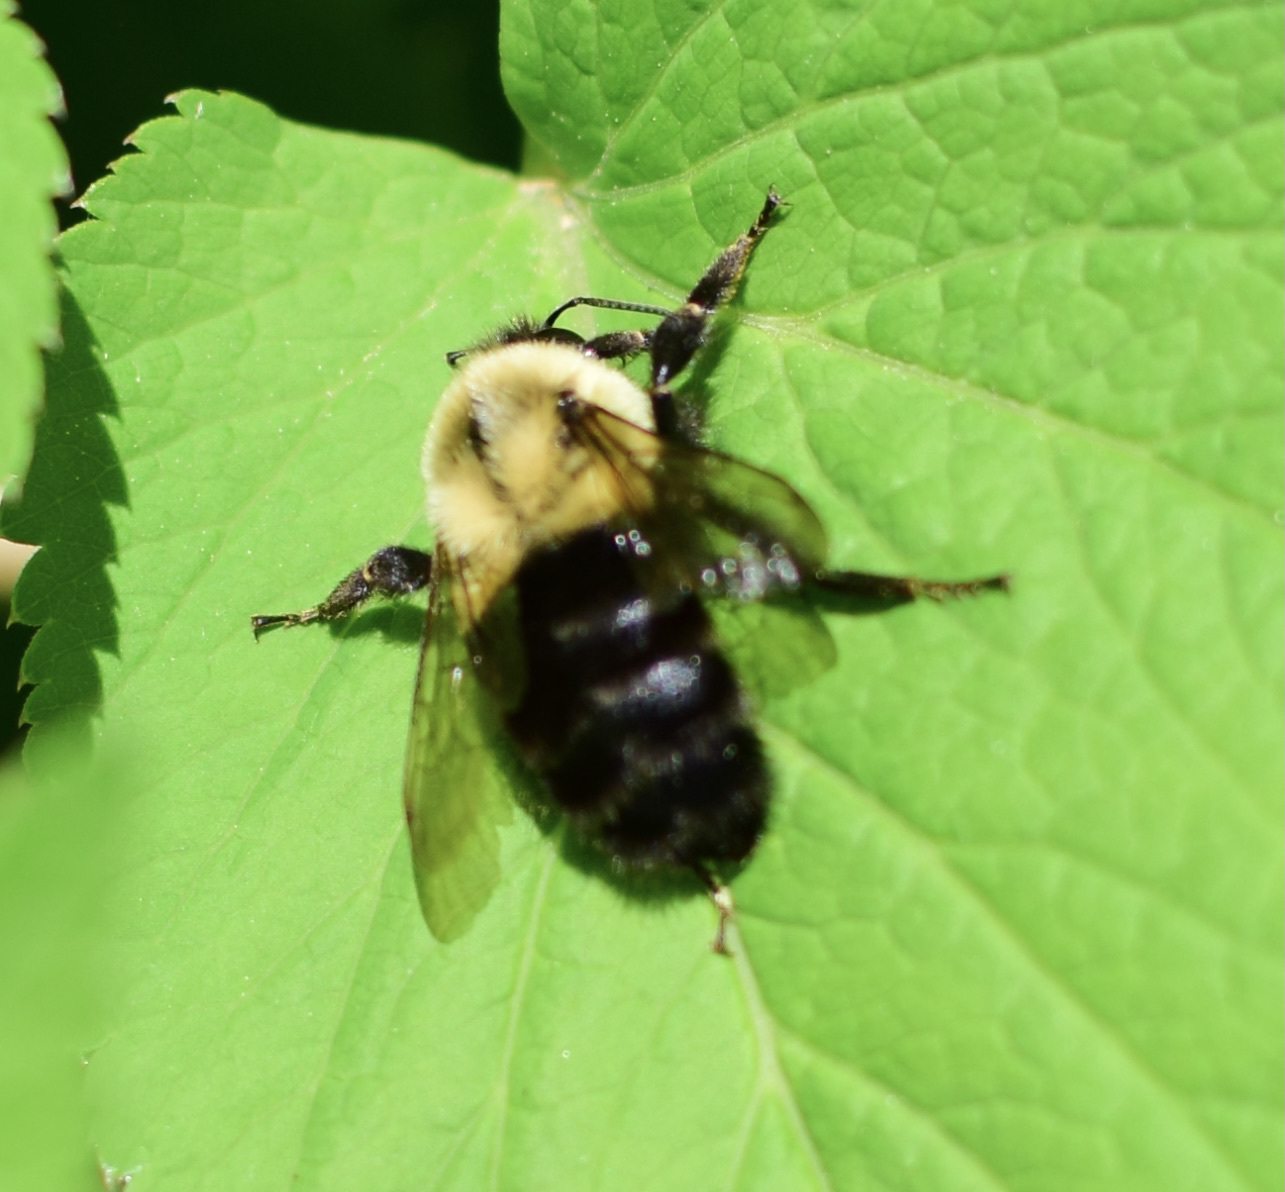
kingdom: Animalia
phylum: Arthropoda
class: Insecta
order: Hymenoptera
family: Apidae
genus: Bombus
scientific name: Bombus impatiens
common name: Common eastern bumble bee
